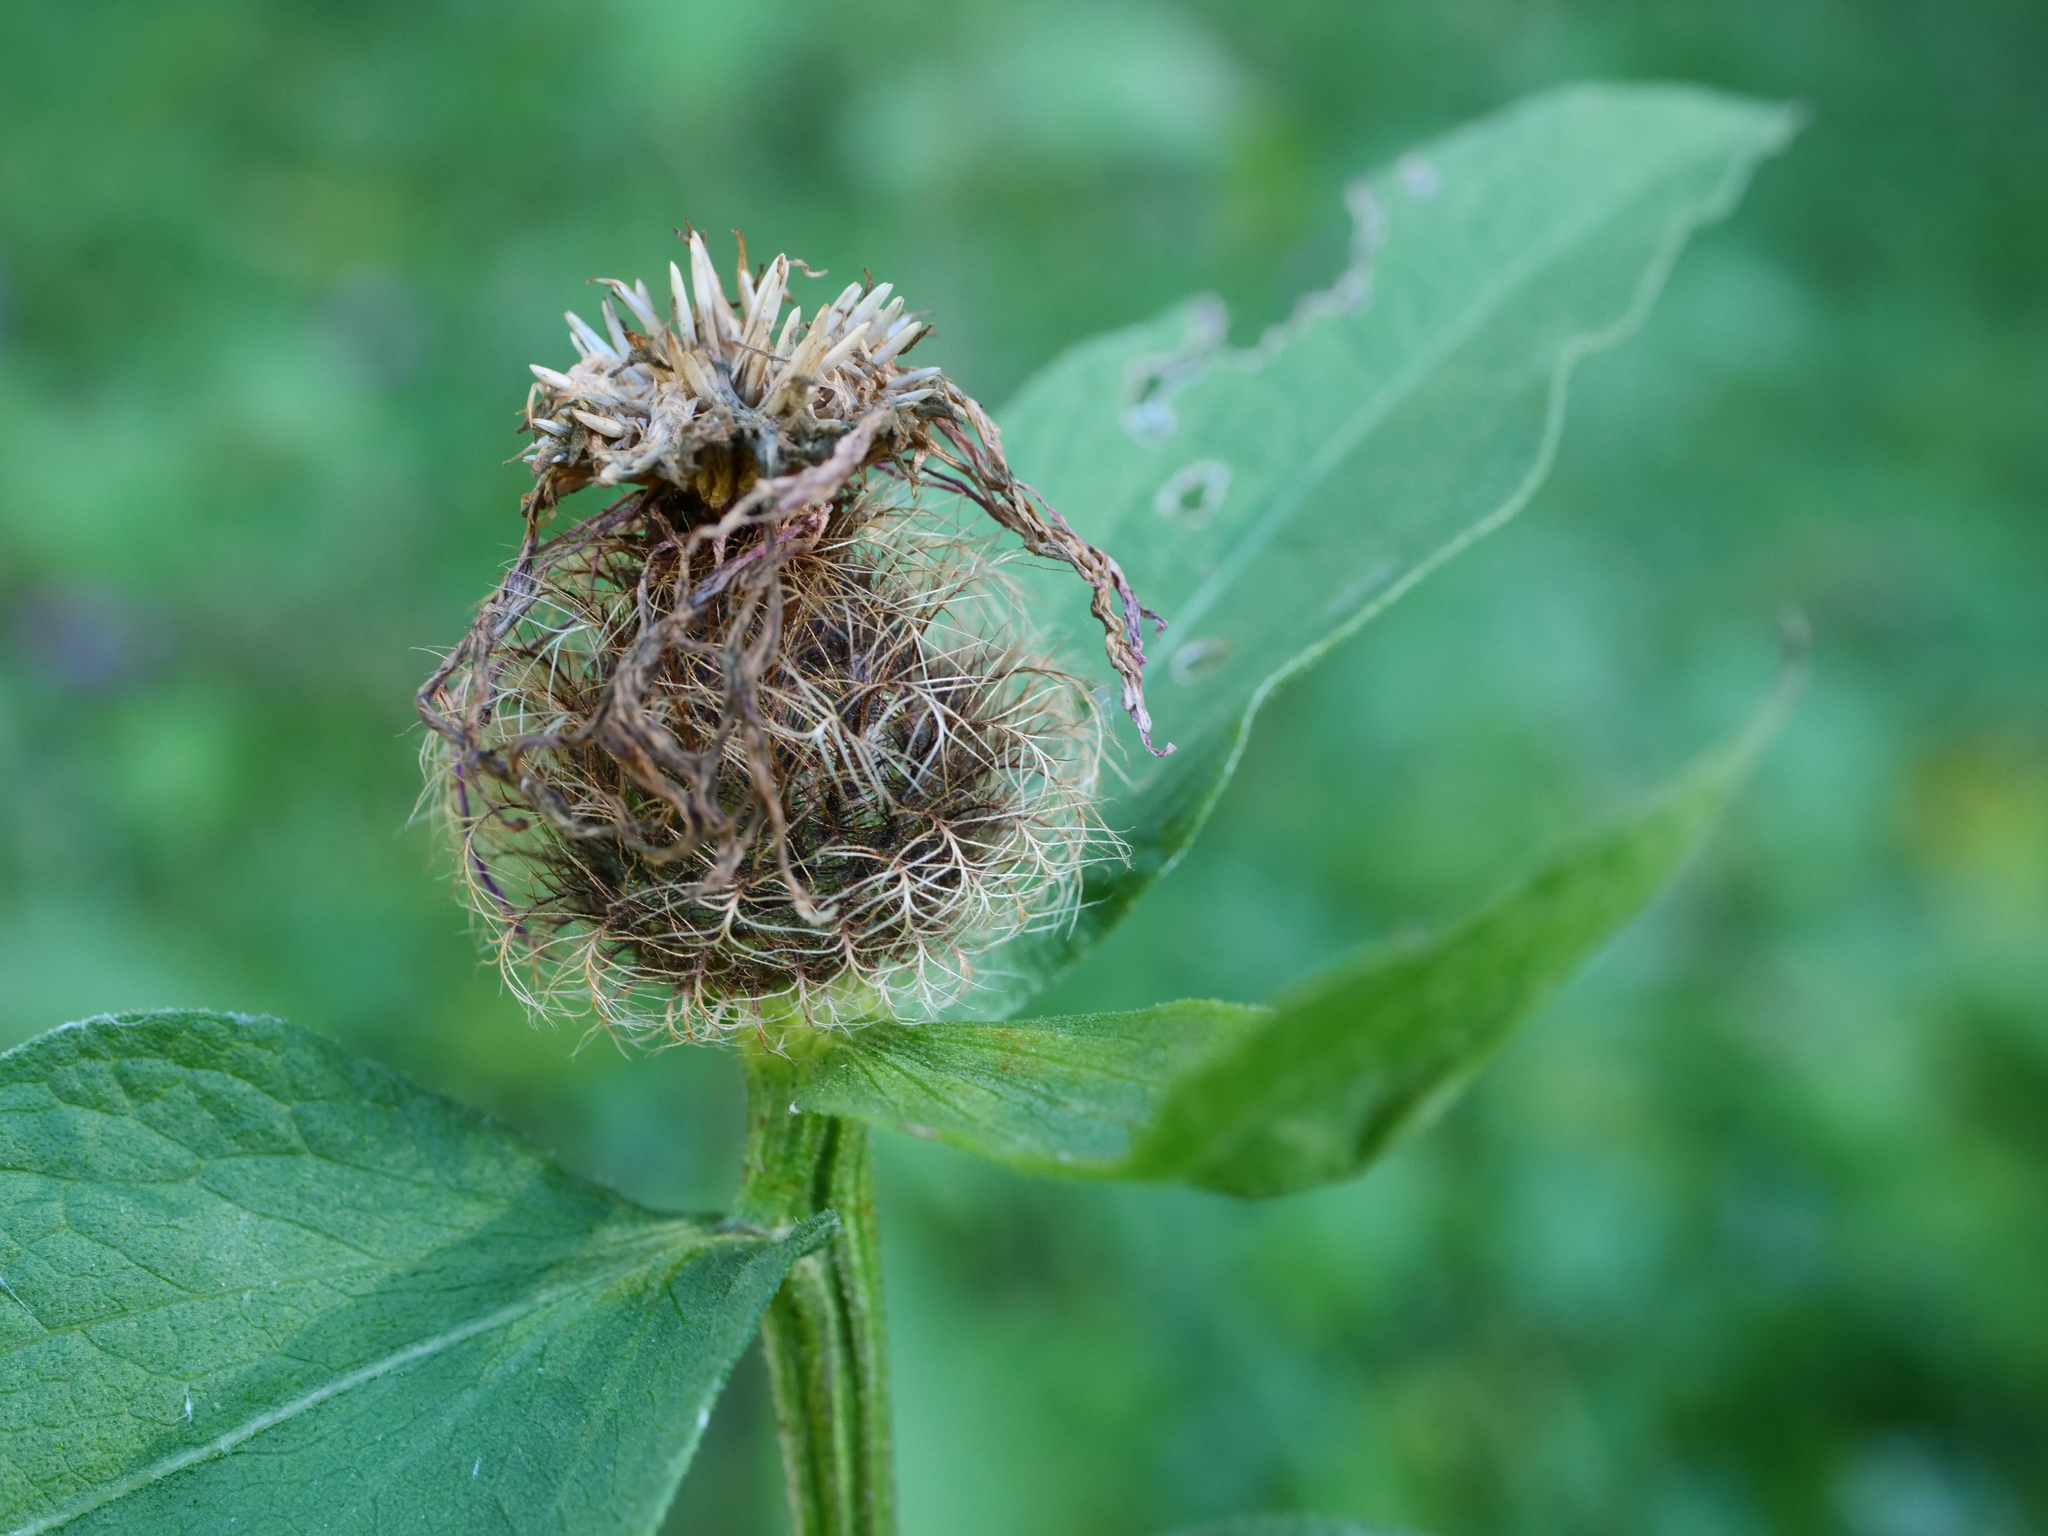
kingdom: Plantae
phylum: Tracheophyta
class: Magnoliopsida
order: Asterales
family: Asteraceae
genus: Centaurea
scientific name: Centaurea pseudophrygia
